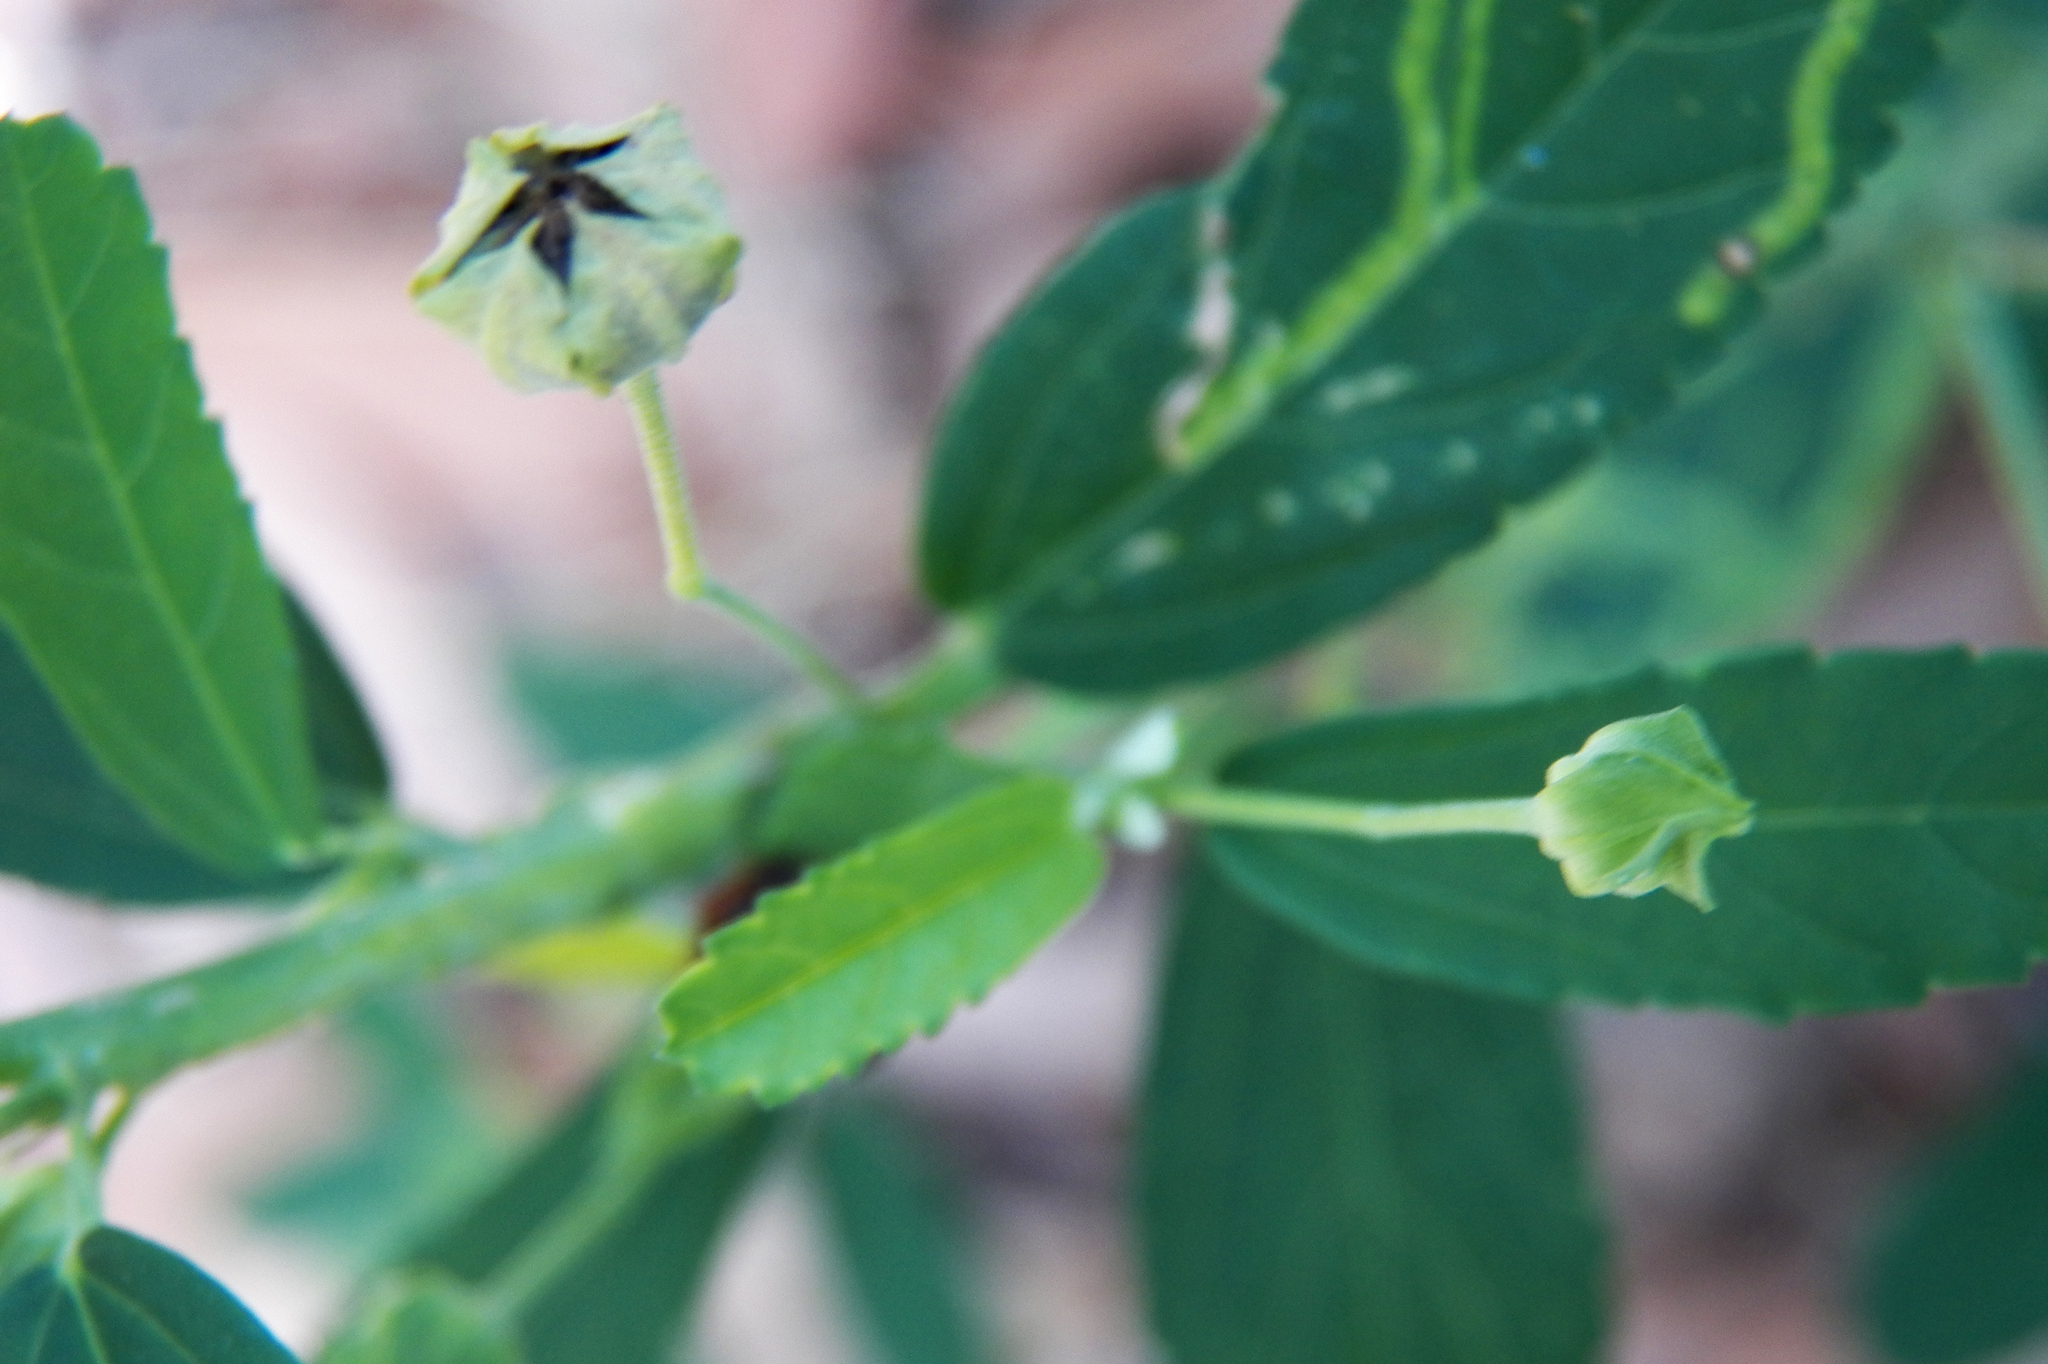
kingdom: Plantae
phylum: Tracheophyta
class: Magnoliopsida
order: Malvales
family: Malvaceae
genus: Sida
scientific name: Sida rhombifolia
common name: Queensland-hemp
